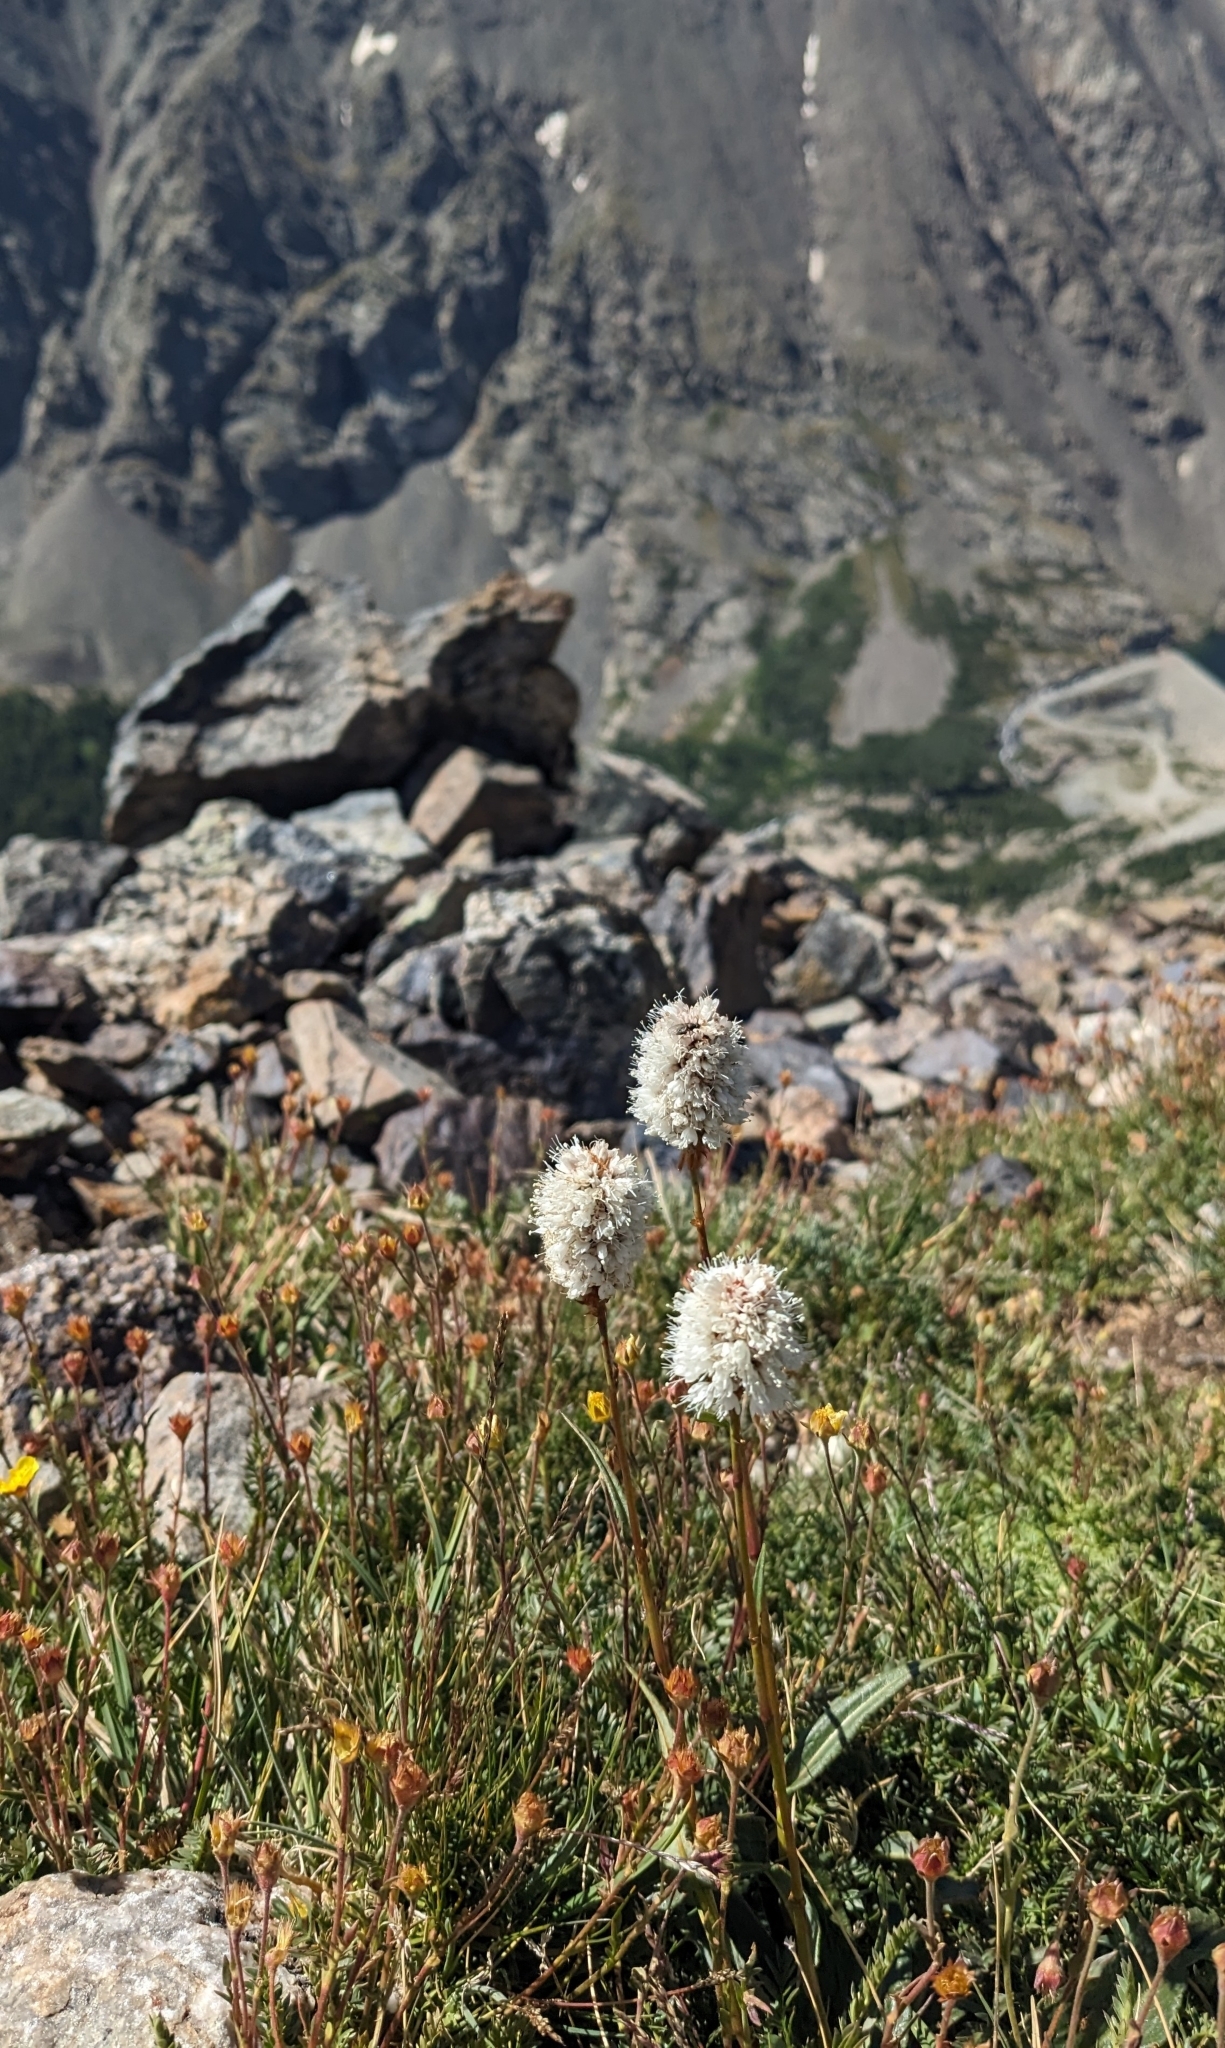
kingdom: Plantae
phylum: Tracheophyta
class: Magnoliopsida
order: Caryophyllales
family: Polygonaceae
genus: Bistorta
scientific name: Bistorta bistortoides
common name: American bistort
